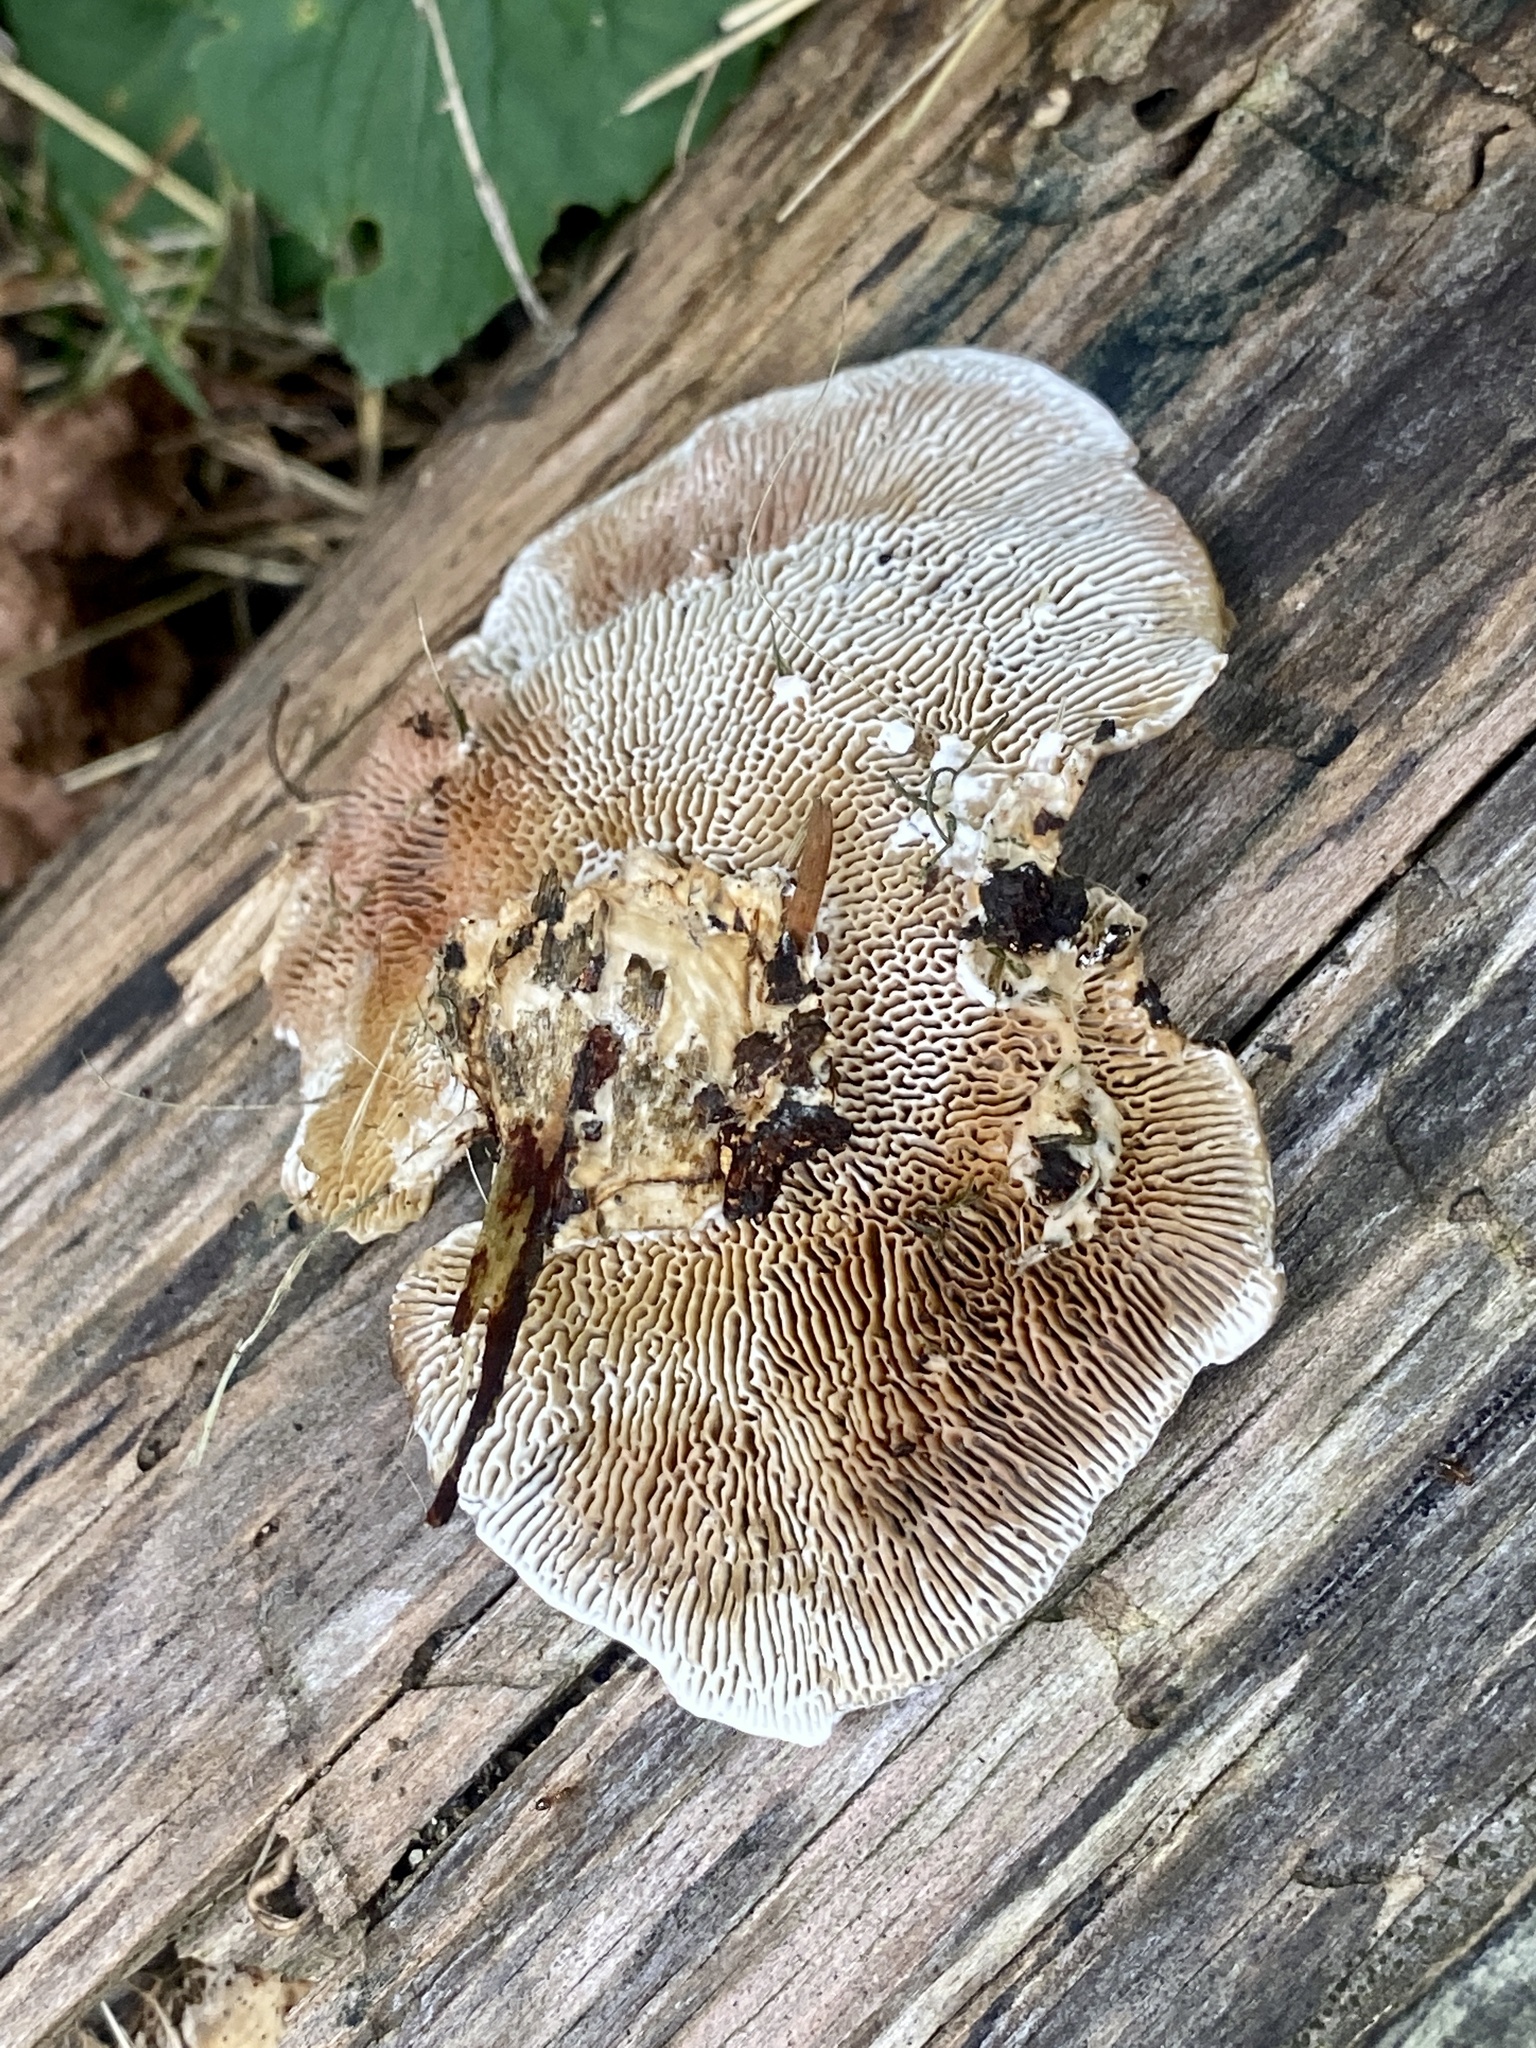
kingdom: Fungi
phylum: Basidiomycota
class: Agaricomycetes
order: Polyporales
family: Polyporaceae
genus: Daedaleopsis
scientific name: Daedaleopsis confragosa
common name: Blushing bracket
